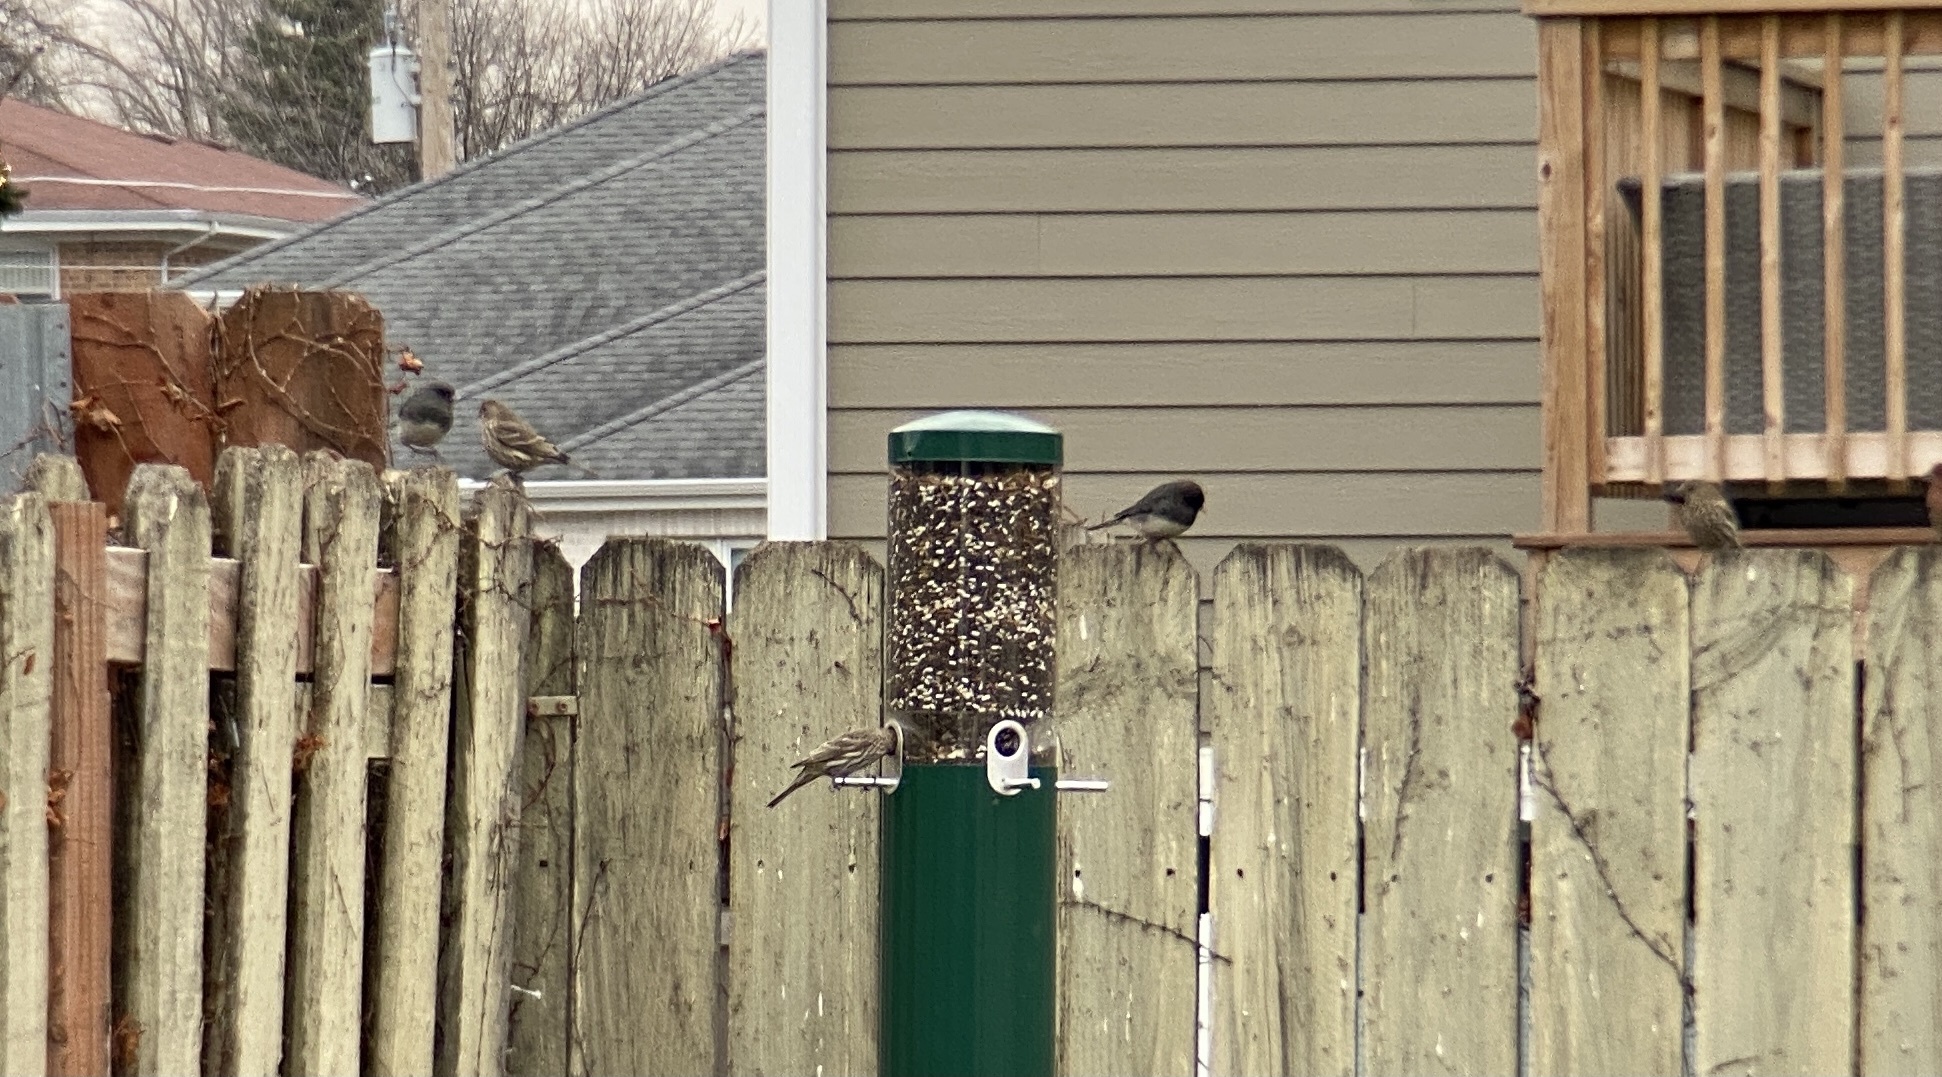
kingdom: Animalia
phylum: Chordata
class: Aves
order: Passeriformes
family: Passerellidae
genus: Junco
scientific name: Junco hyemalis
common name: Dark-eyed junco
